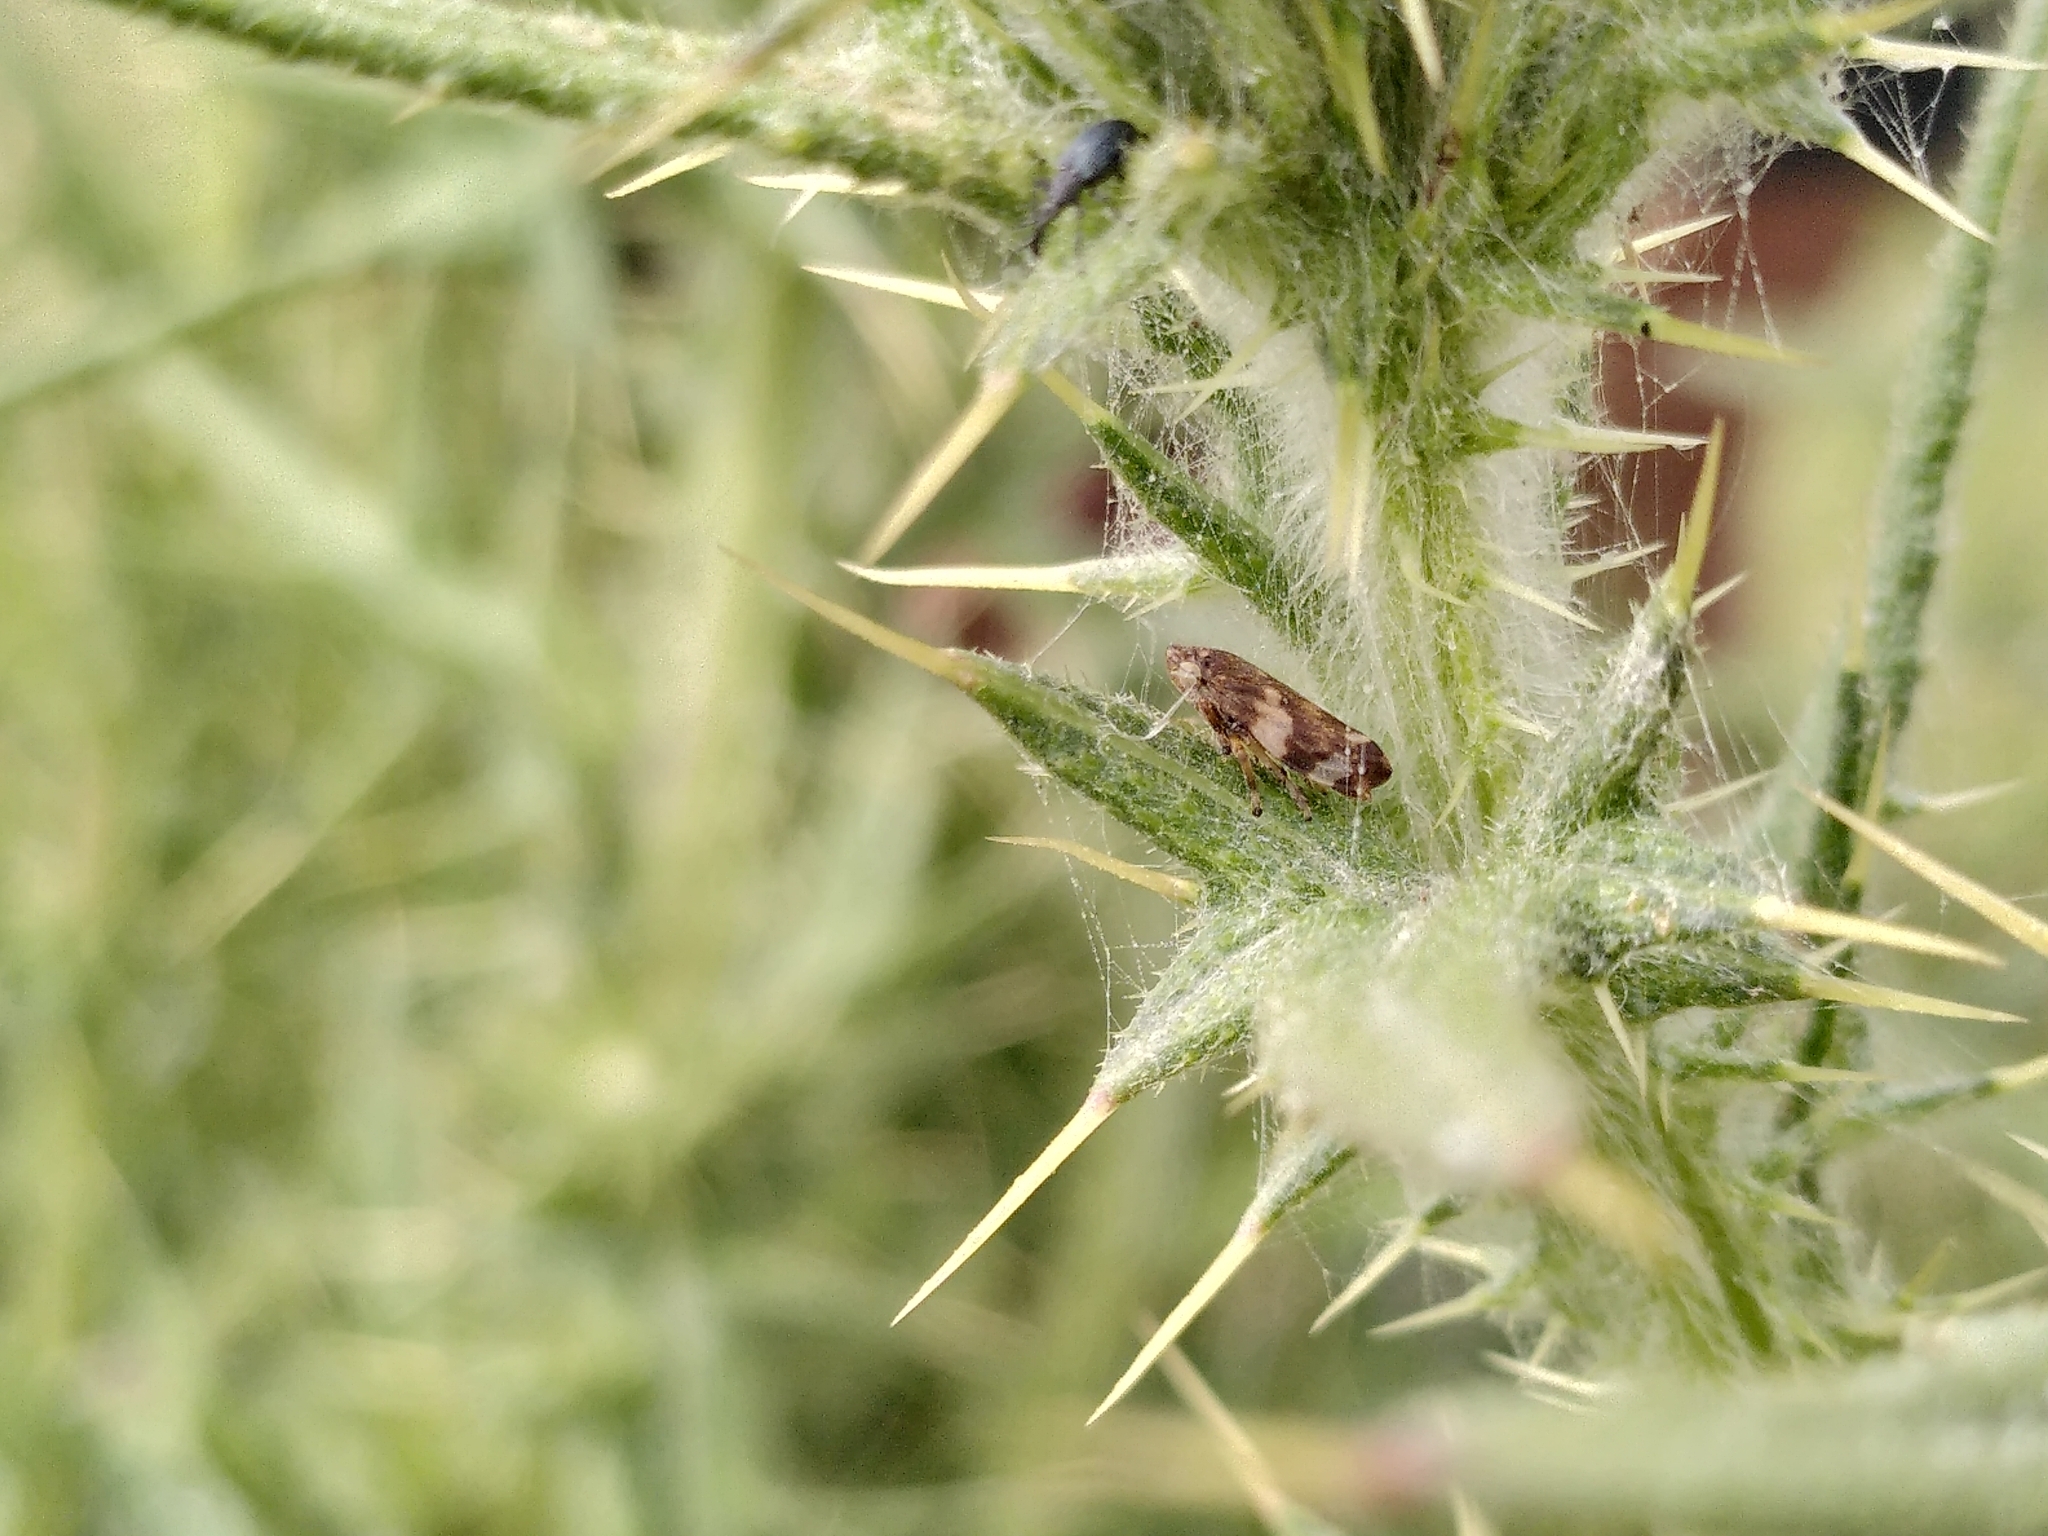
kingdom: Animalia
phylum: Arthropoda
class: Insecta
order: Hemiptera
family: Aphrophoridae
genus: Philaenus
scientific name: Philaenus spumarius
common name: Meadow spittlebug
